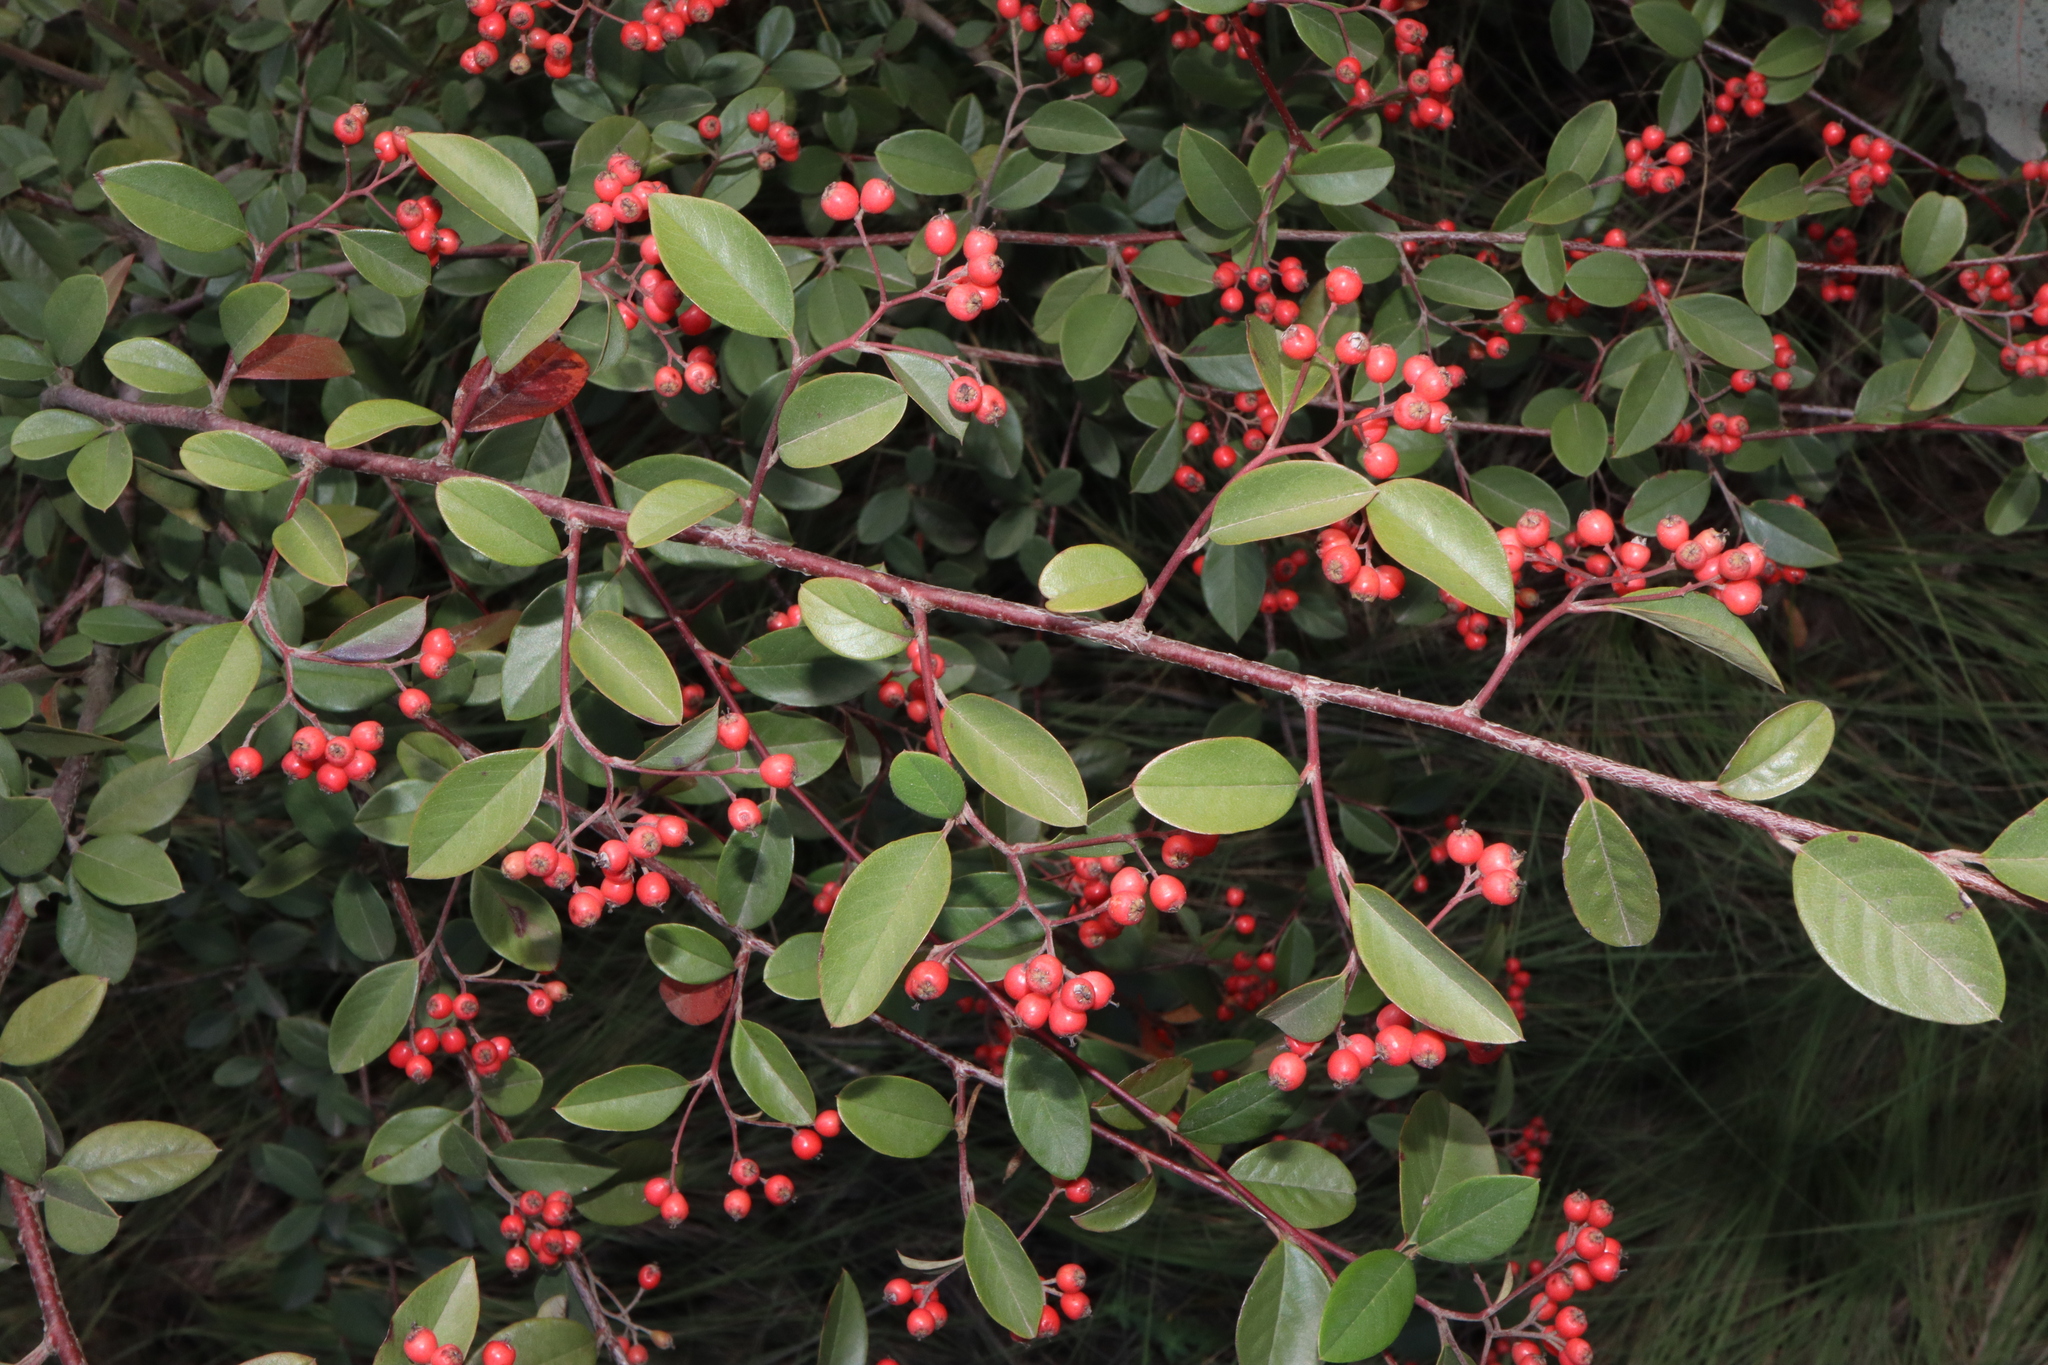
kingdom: Plantae
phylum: Tracheophyta
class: Magnoliopsida
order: Rosales
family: Rosaceae
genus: Cotoneaster
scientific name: Cotoneaster glaucophyllus
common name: Glaucous cotoneaster
